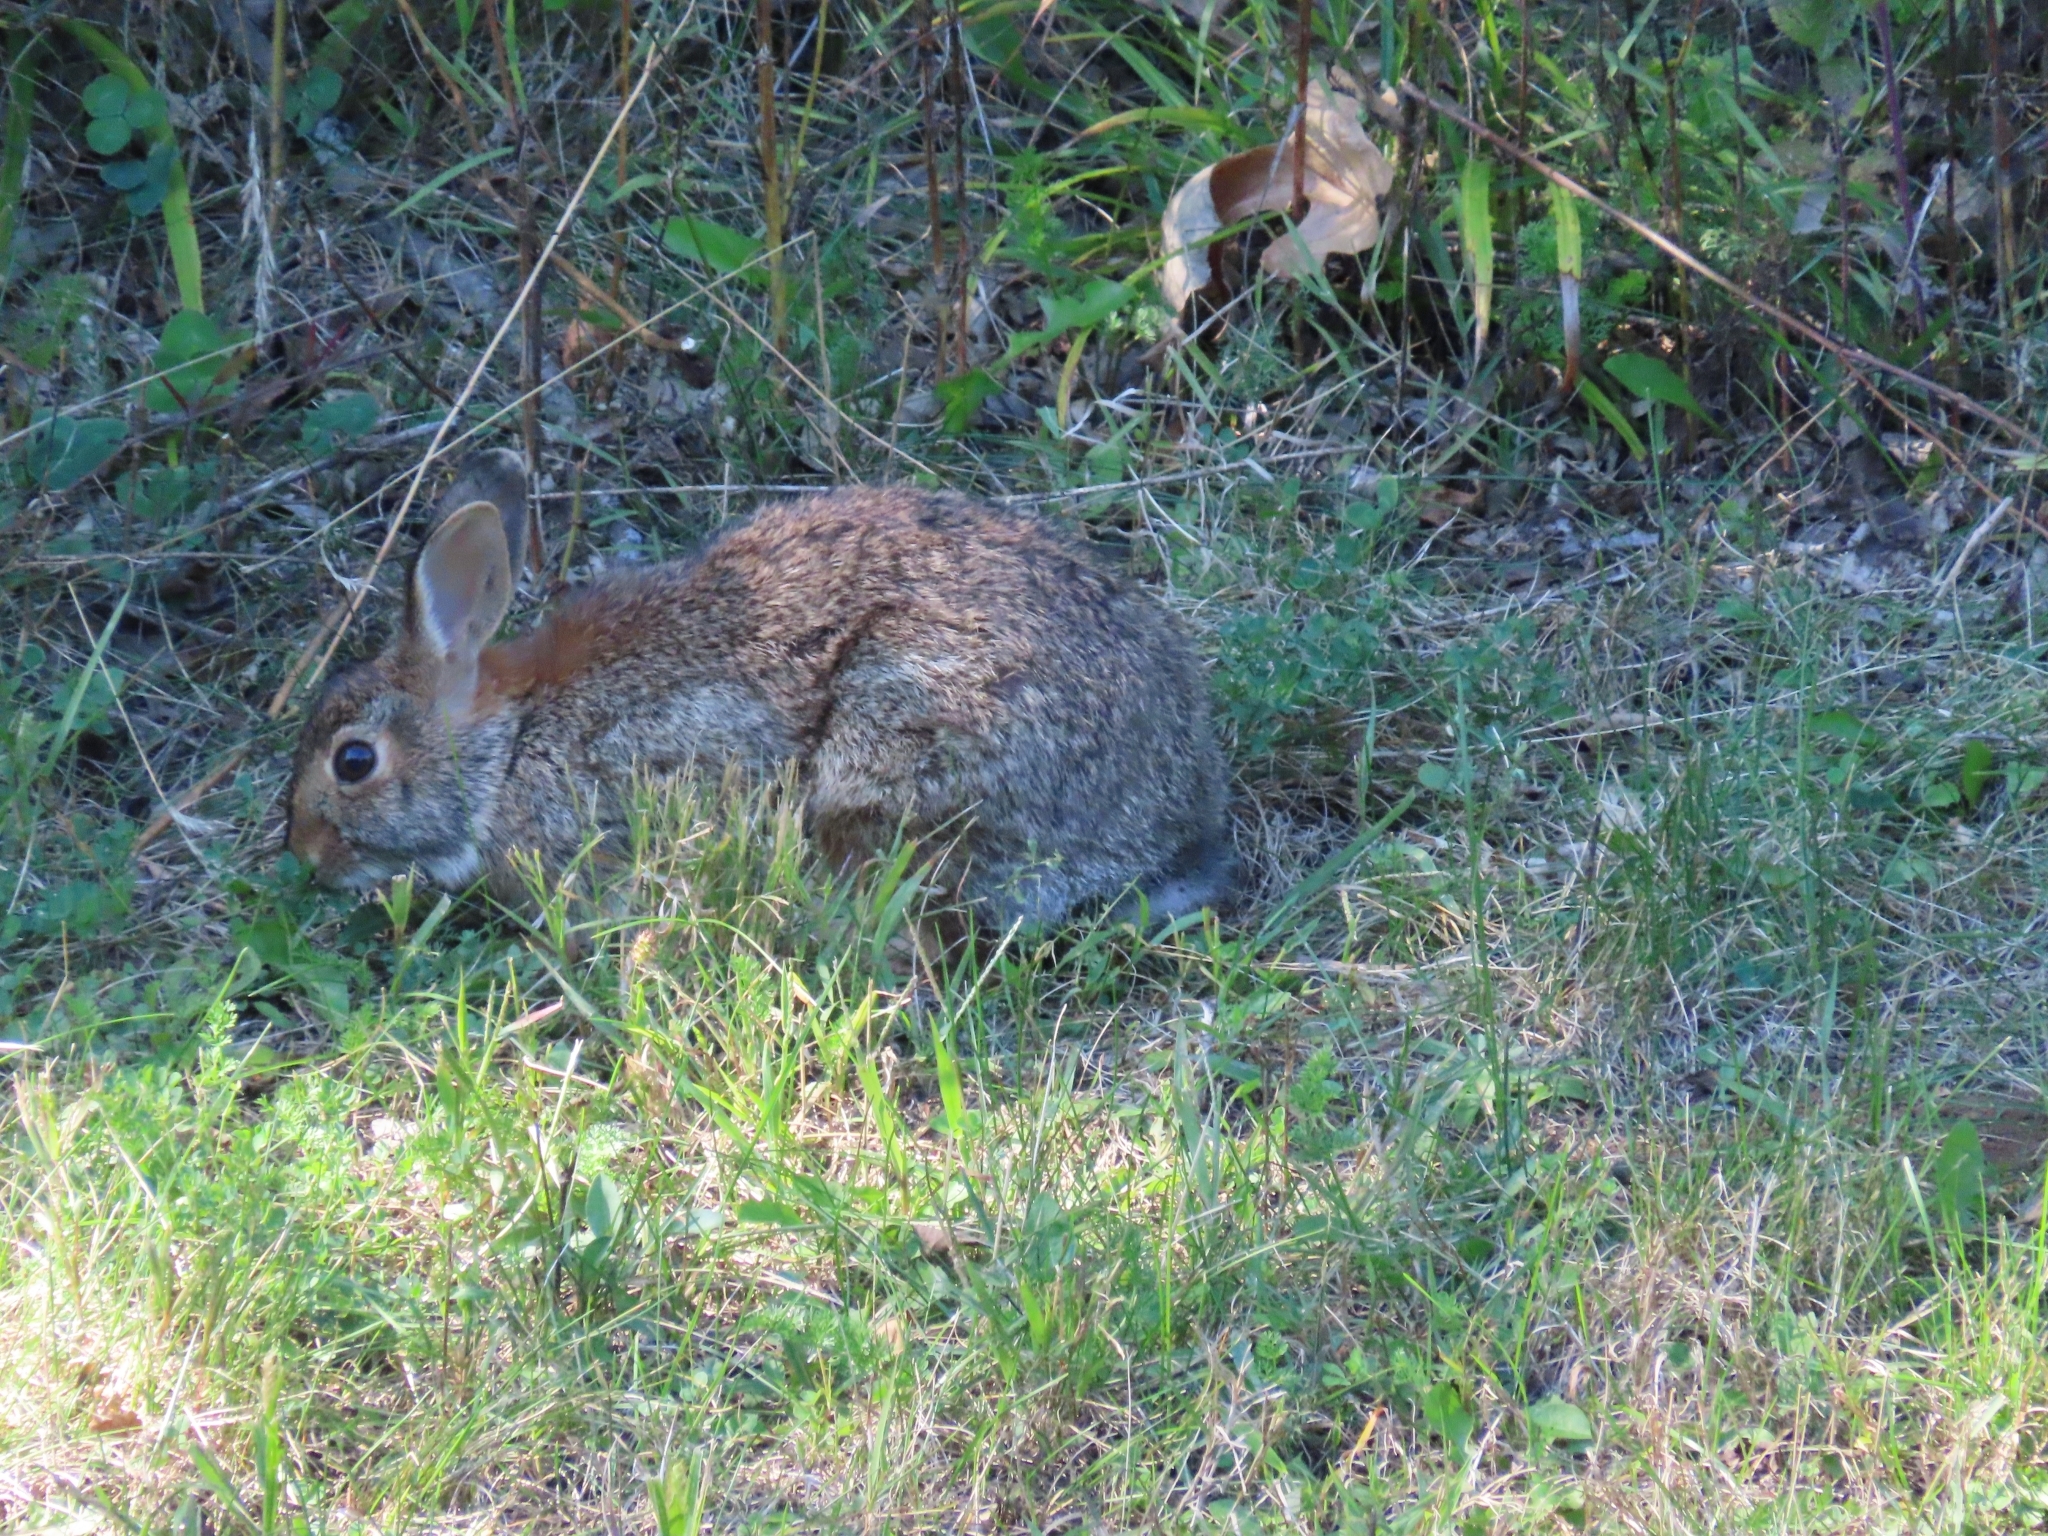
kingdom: Animalia
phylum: Chordata
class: Mammalia
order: Lagomorpha
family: Leporidae
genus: Sylvilagus
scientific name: Sylvilagus floridanus
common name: Eastern cottontail
